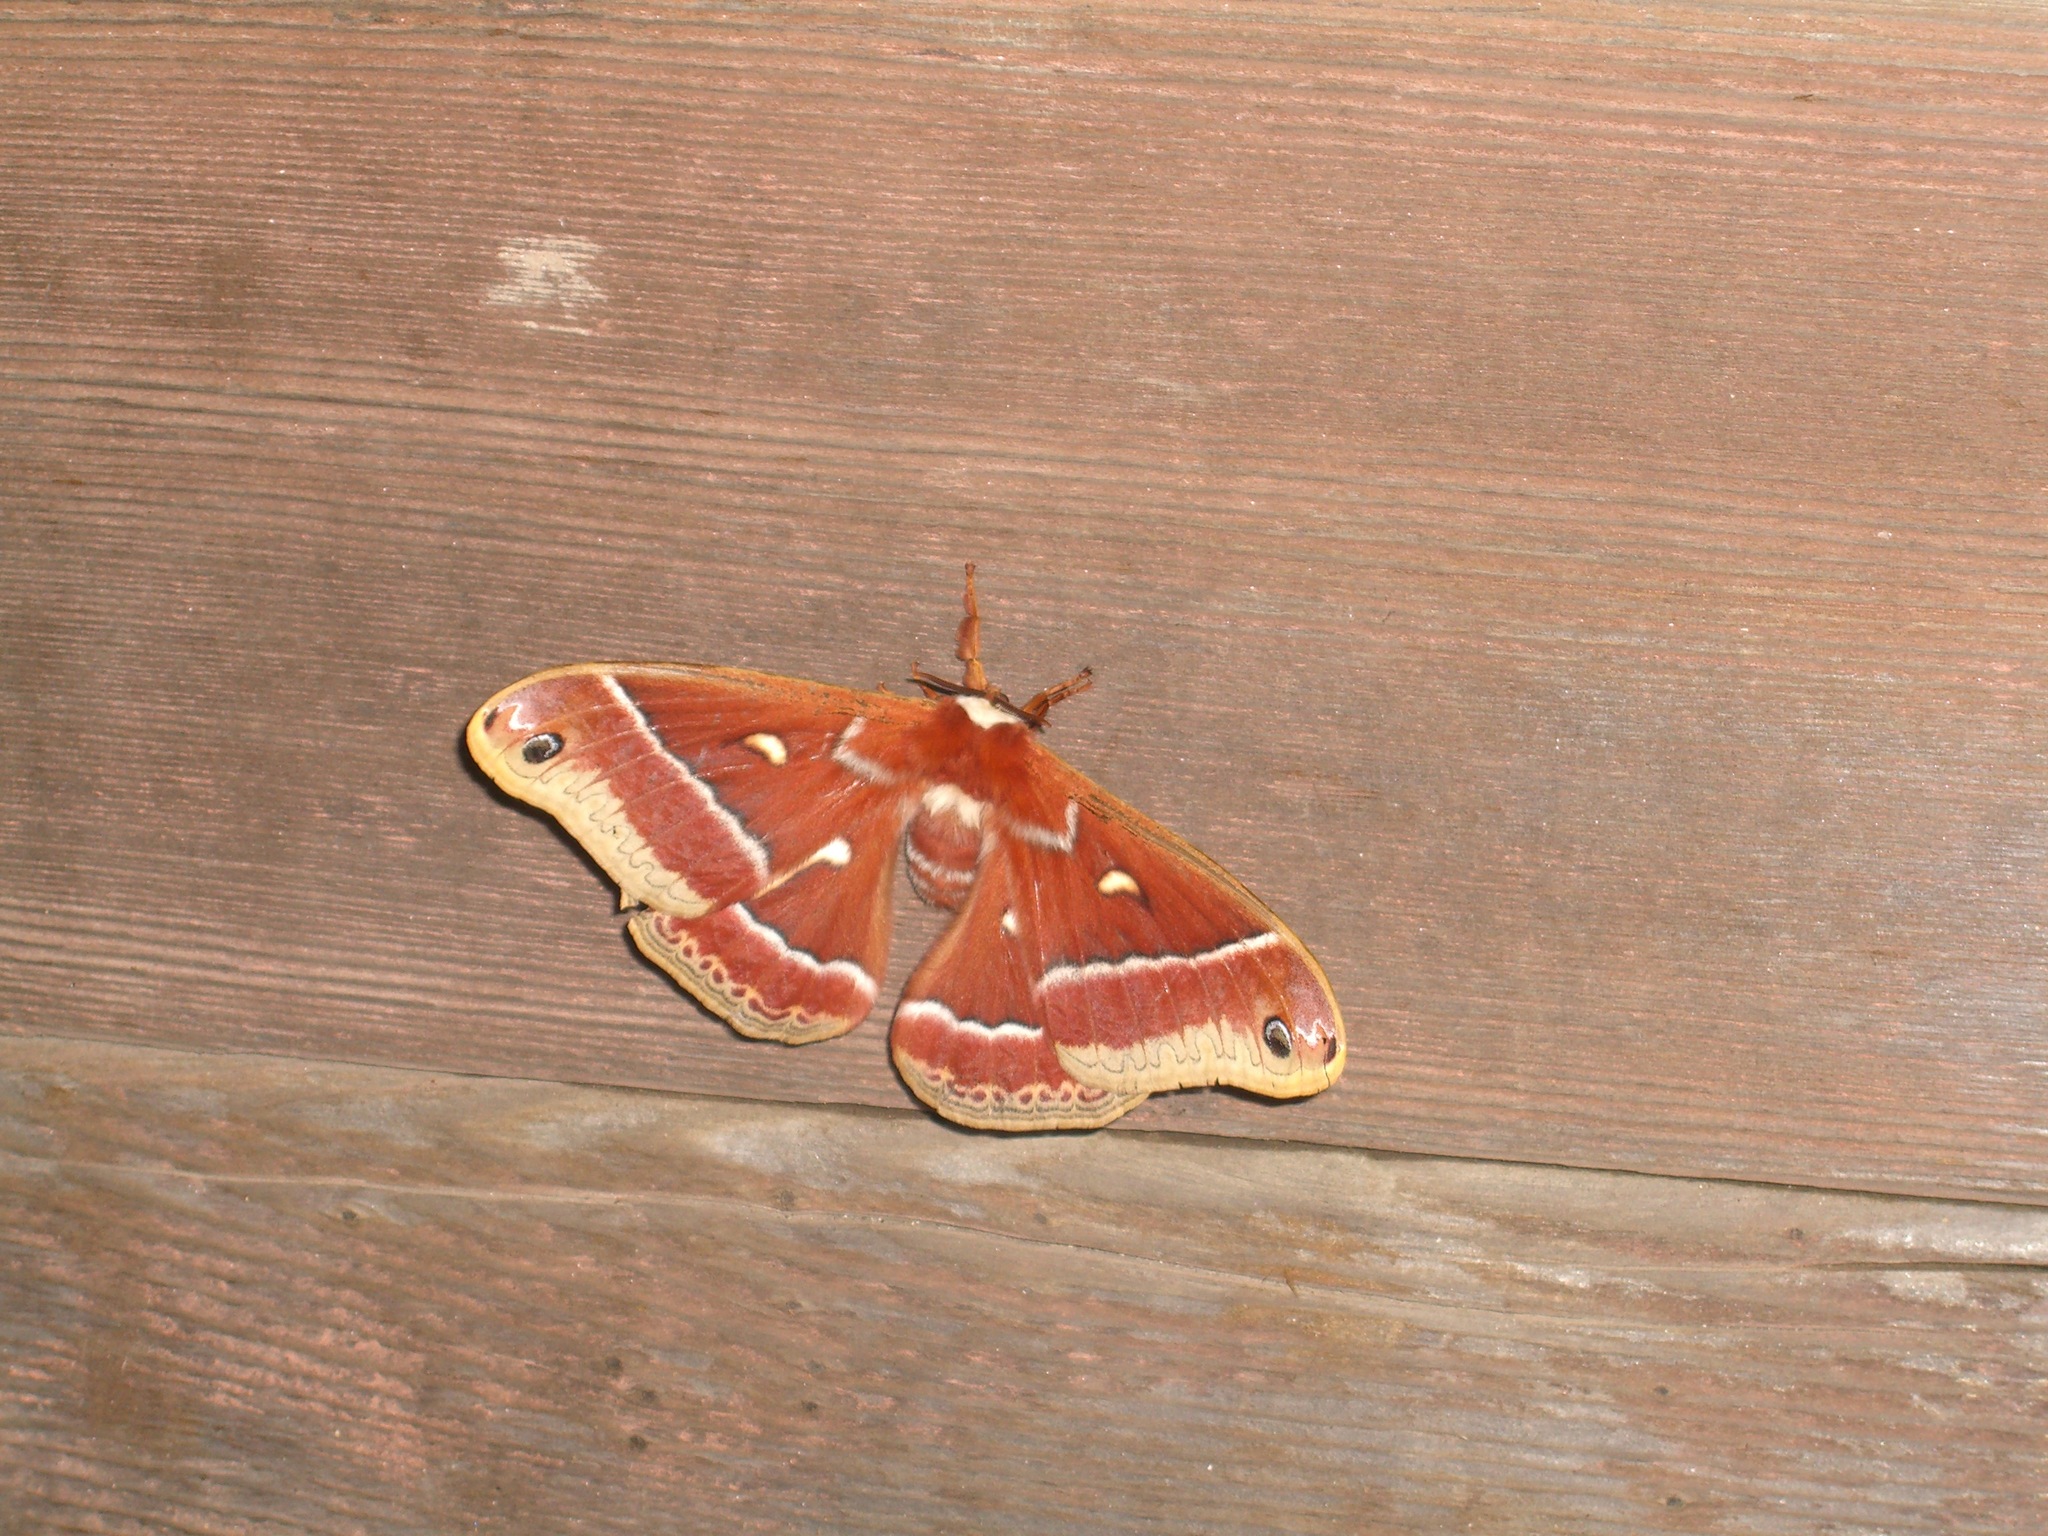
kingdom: Animalia
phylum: Arthropoda
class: Insecta
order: Lepidoptera
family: Saturniidae
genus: Hyalophora
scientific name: Hyalophora euryalus
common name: Ceanothus silkmoth
